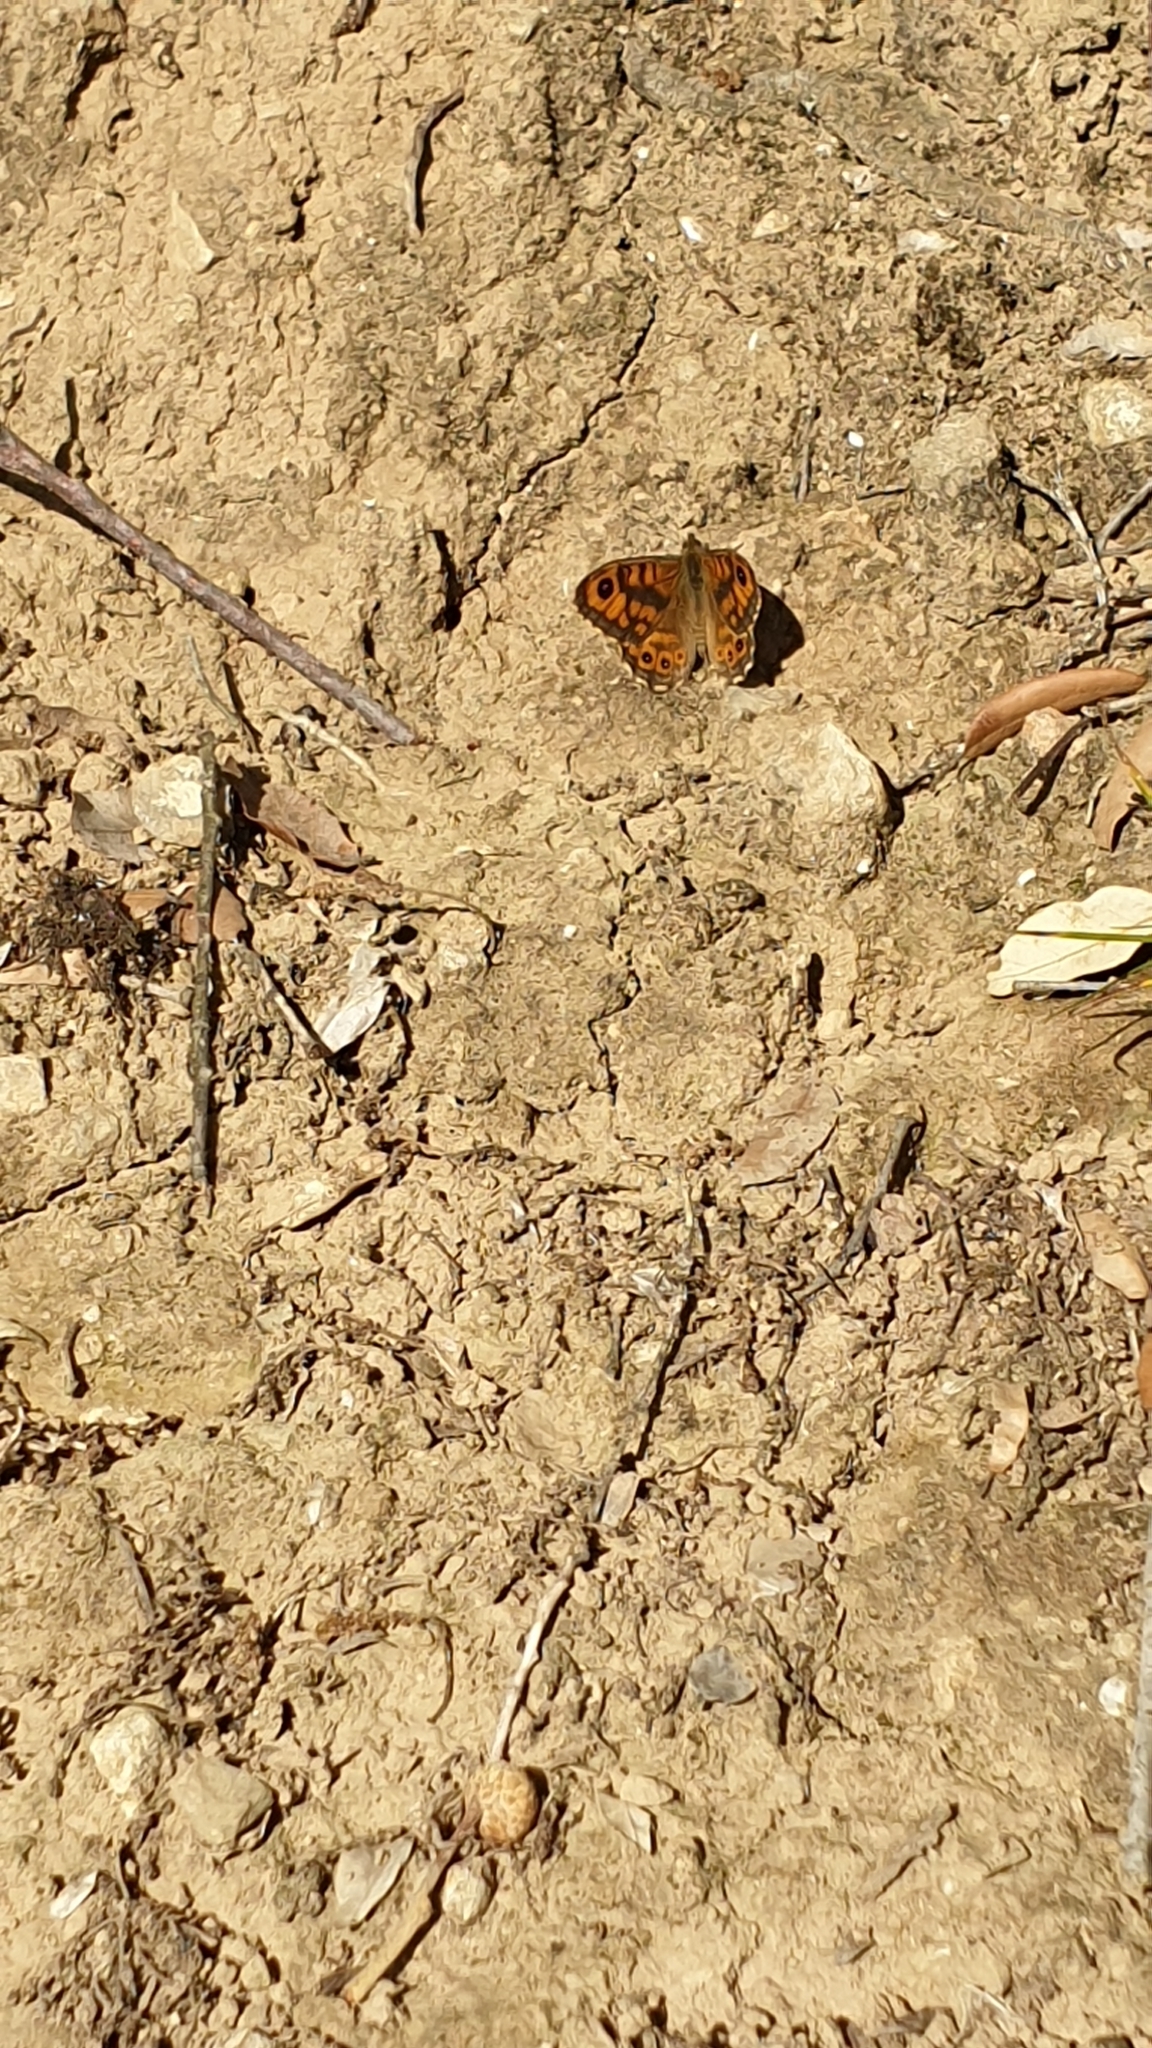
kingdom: Animalia
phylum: Arthropoda
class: Insecta
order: Lepidoptera
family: Nymphalidae
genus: Pararge
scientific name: Pararge Lasiommata megera
